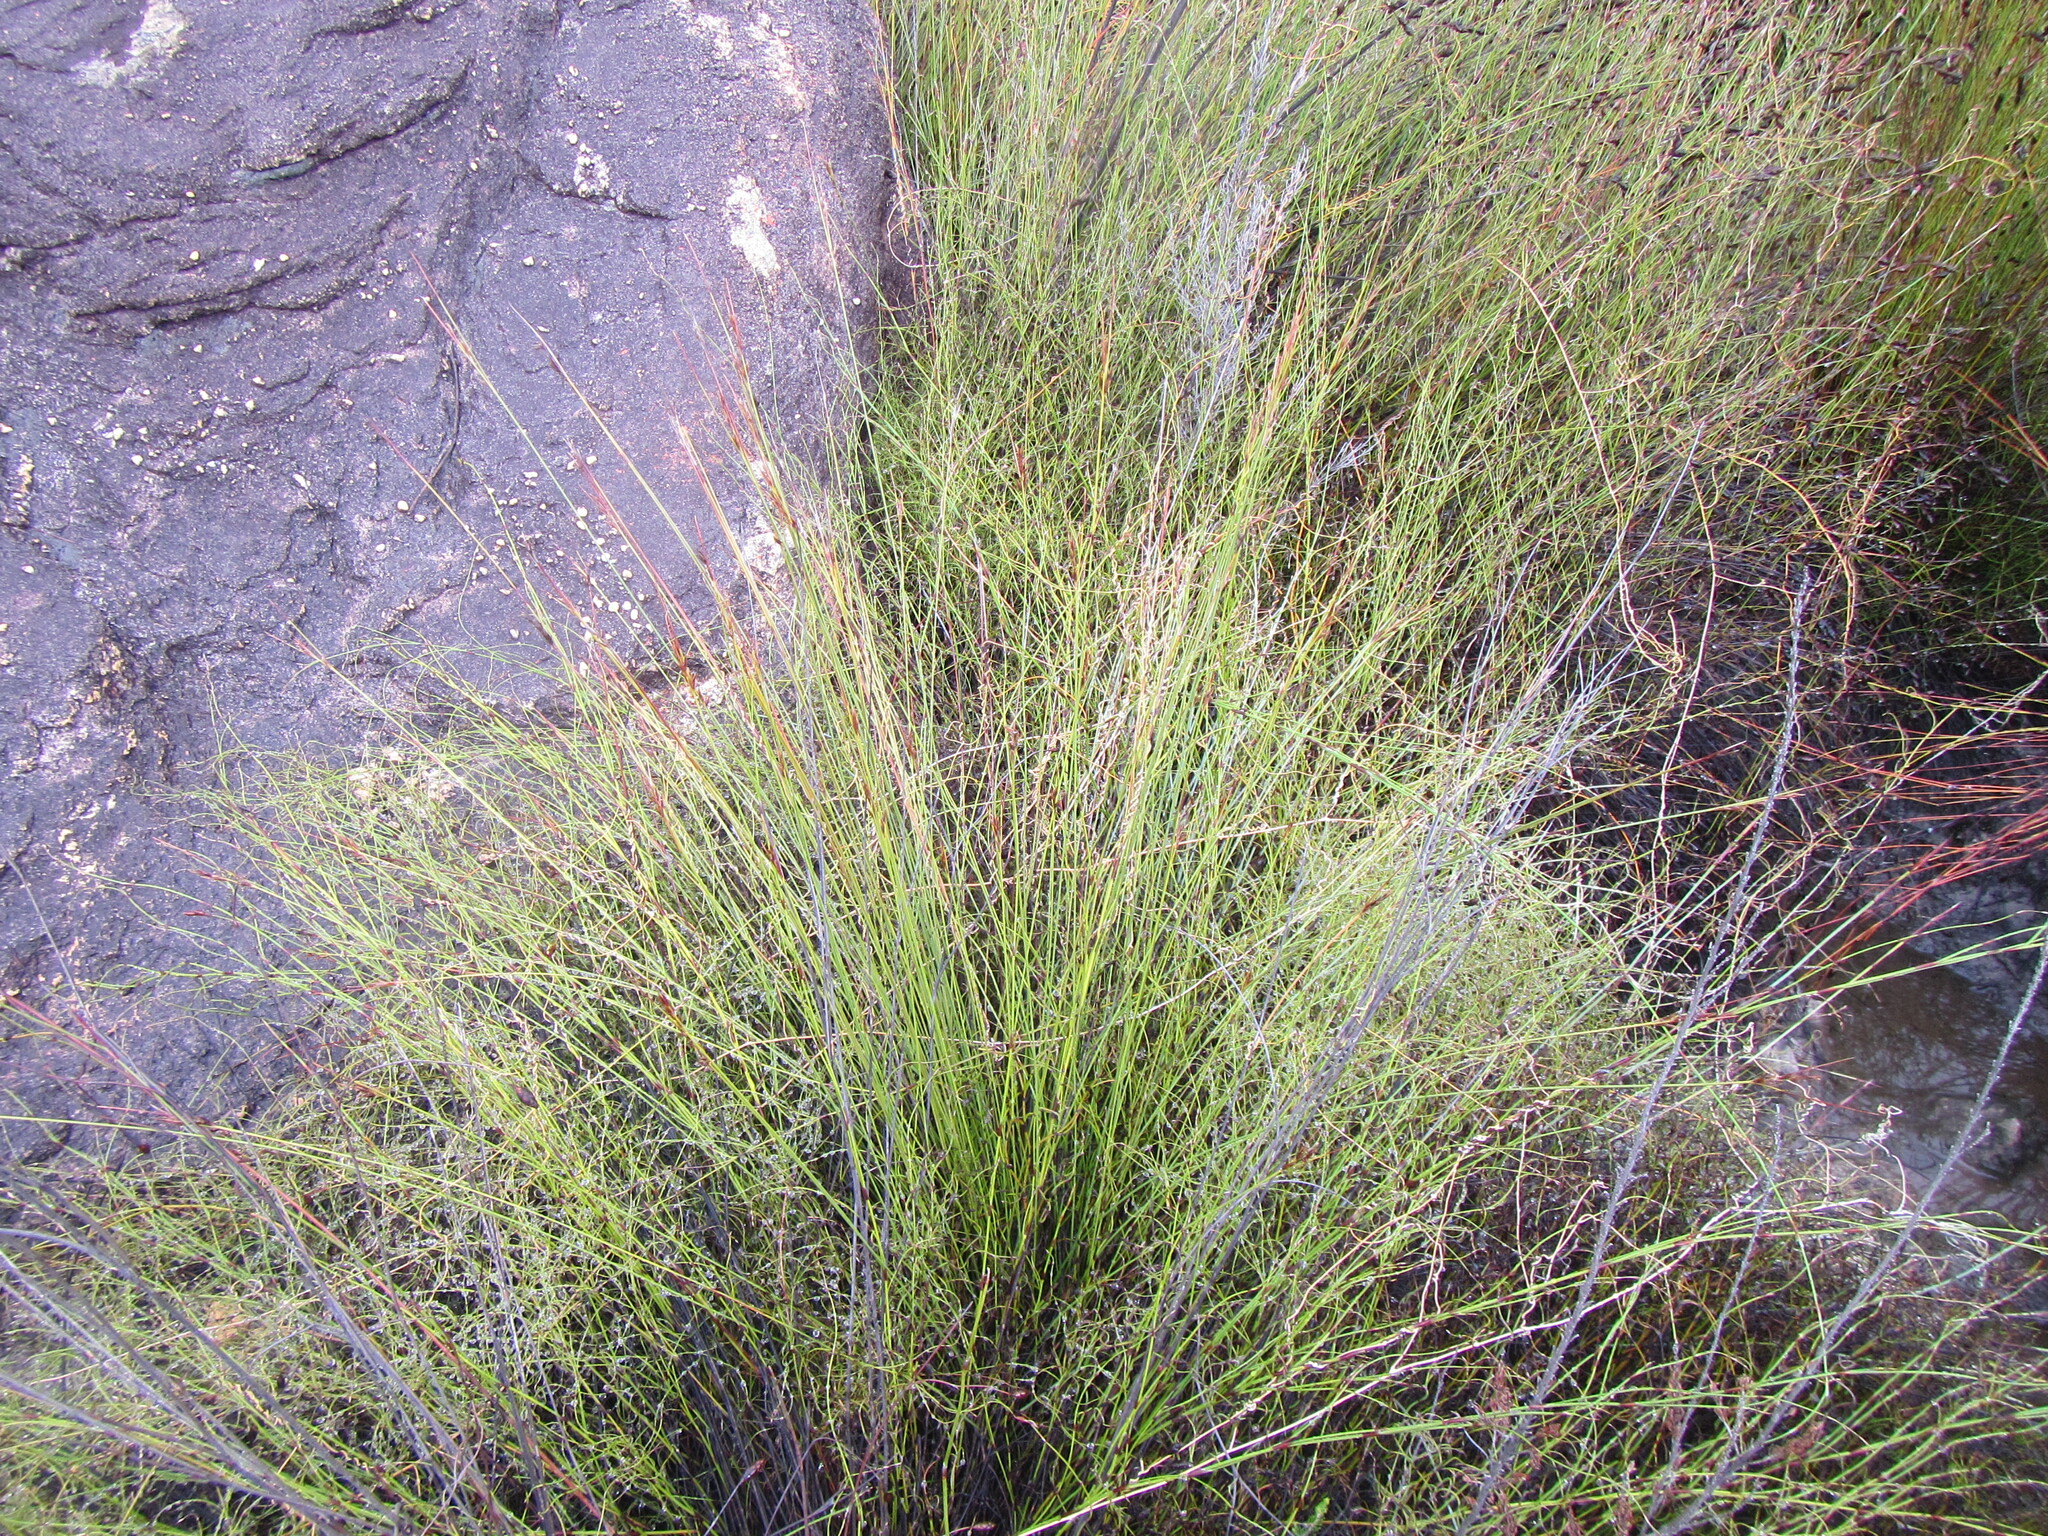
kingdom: Plantae
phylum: Tracheophyta
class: Liliopsida
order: Poales
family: Cyperaceae
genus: Schoenus
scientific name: Schoenus dregeanus
